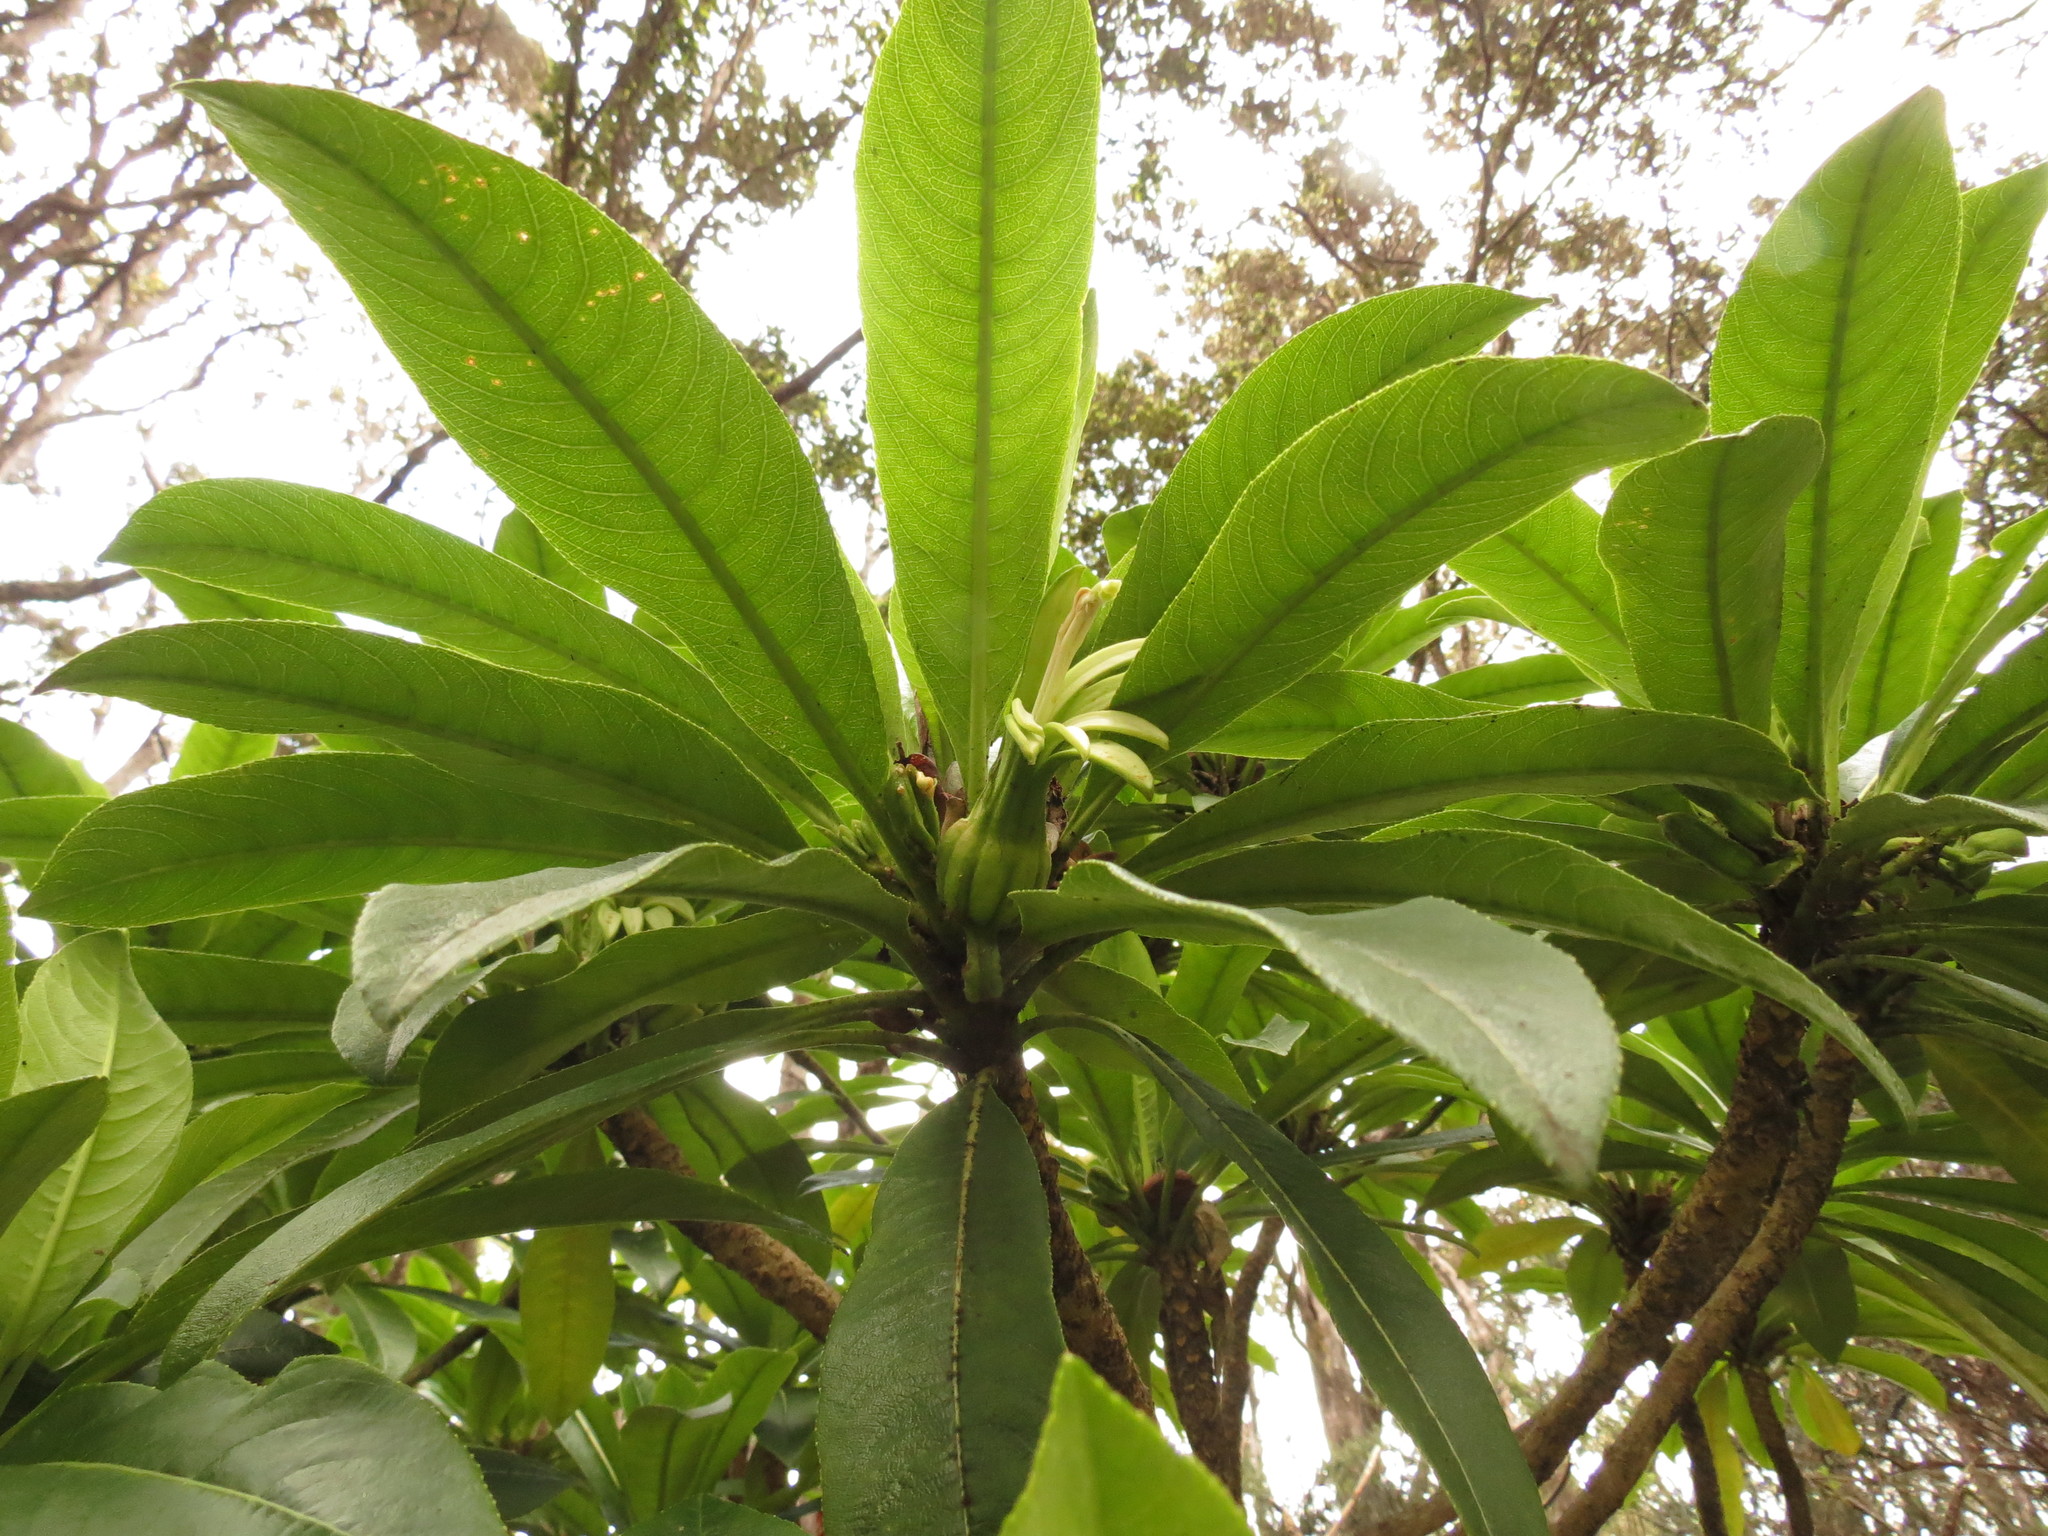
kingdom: Plantae
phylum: Tracheophyta
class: Magnoliopsida
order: Asterales
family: Campanulaceae
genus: Clermontia
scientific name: Clermontia lindseyana
